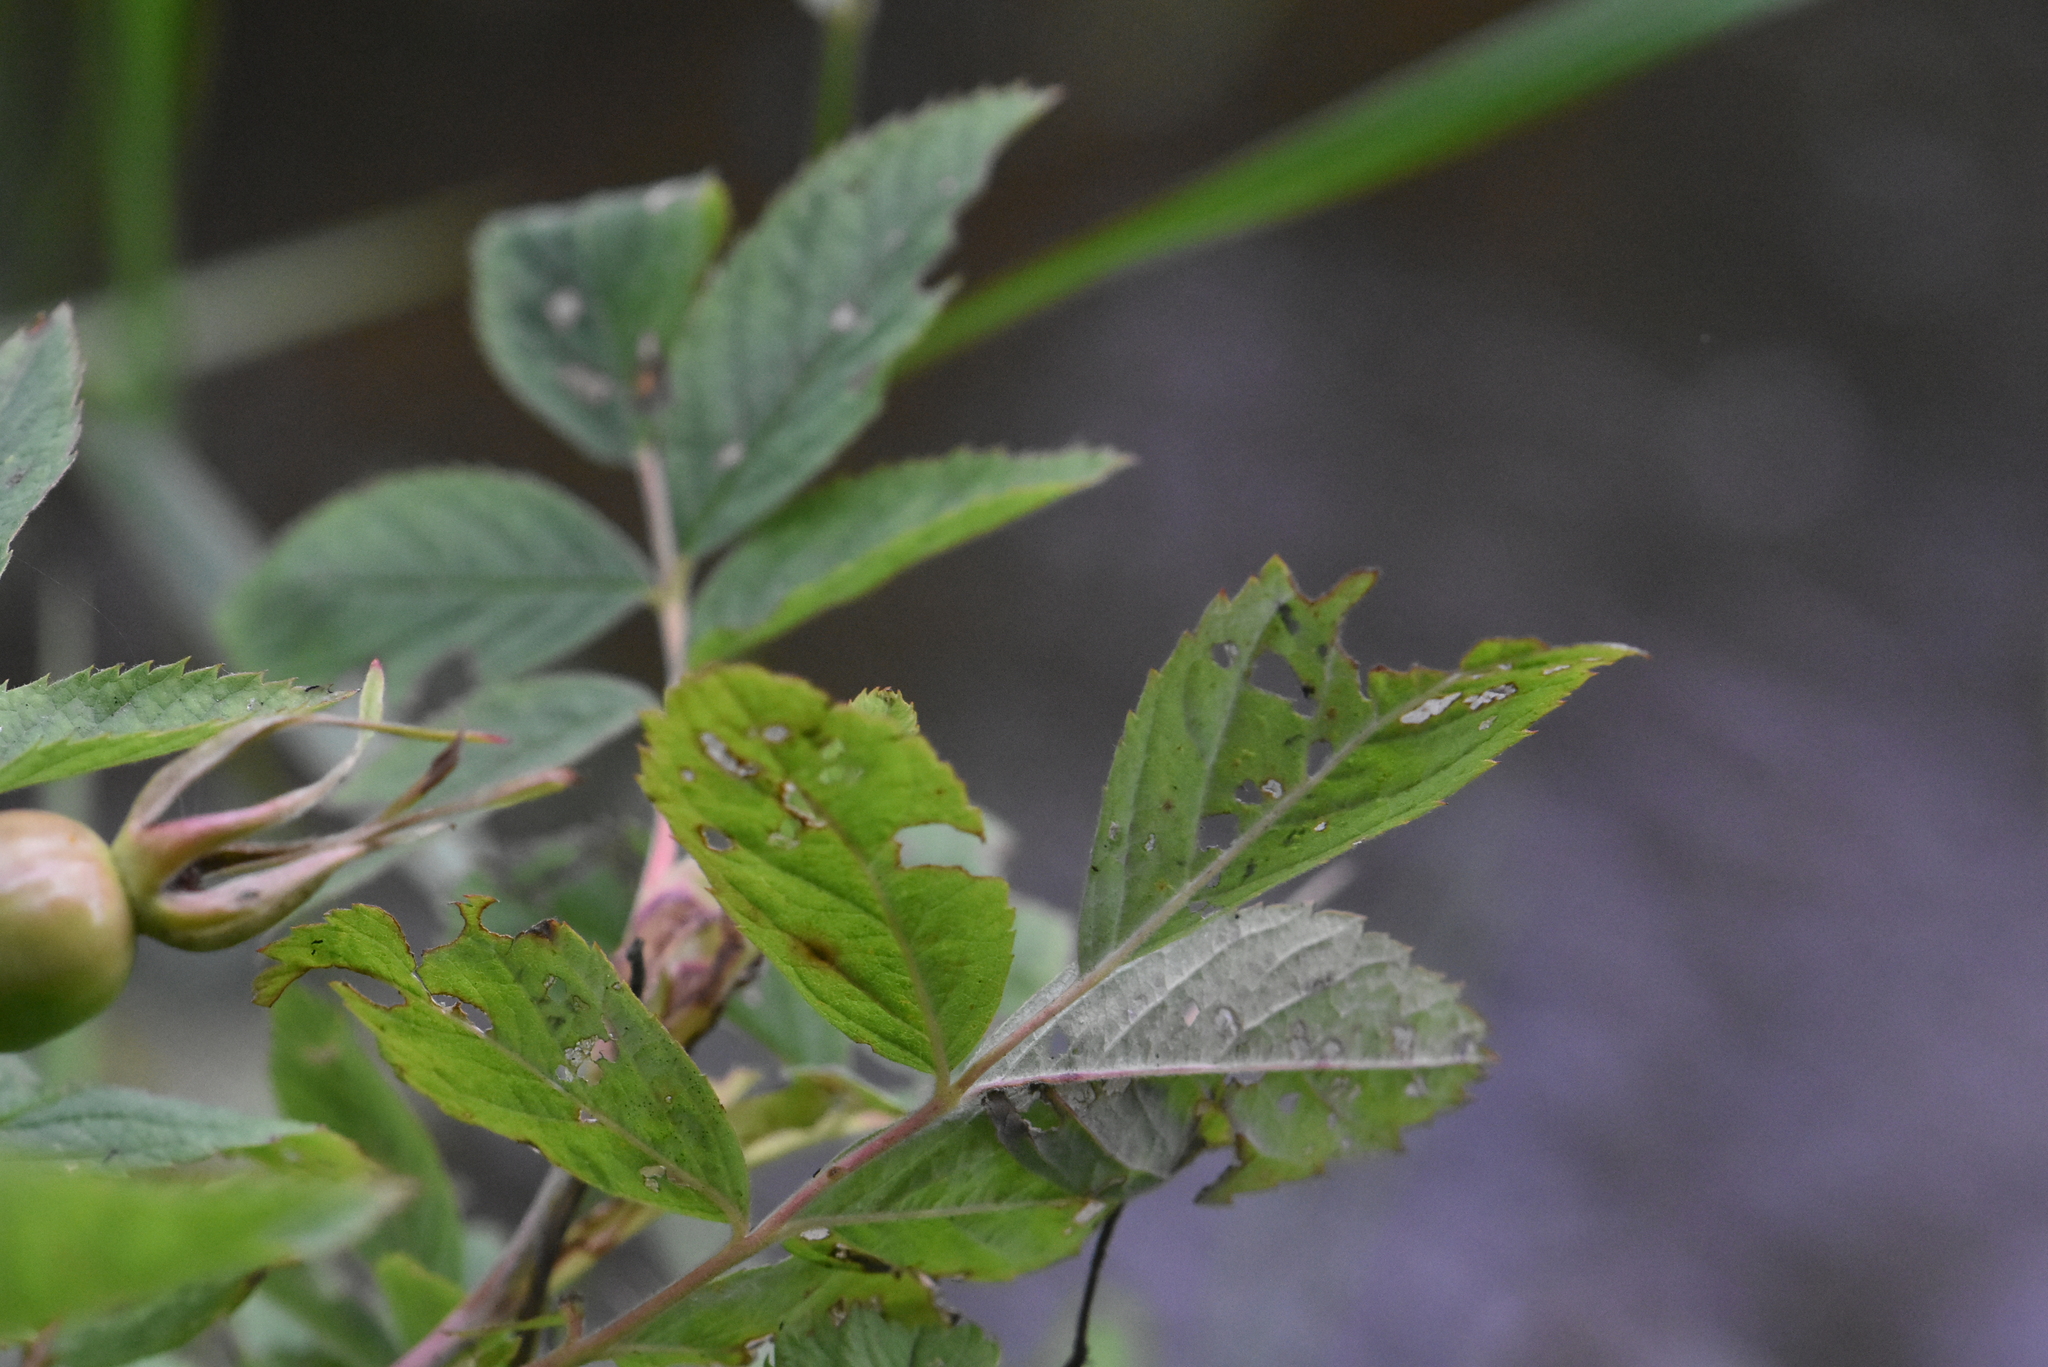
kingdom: Plantae
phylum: Tracheophyta
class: Magnoliopsida
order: Rosales
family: Rosaceae
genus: Rosa
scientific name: Rosa majalis
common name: Cinnamon rose
